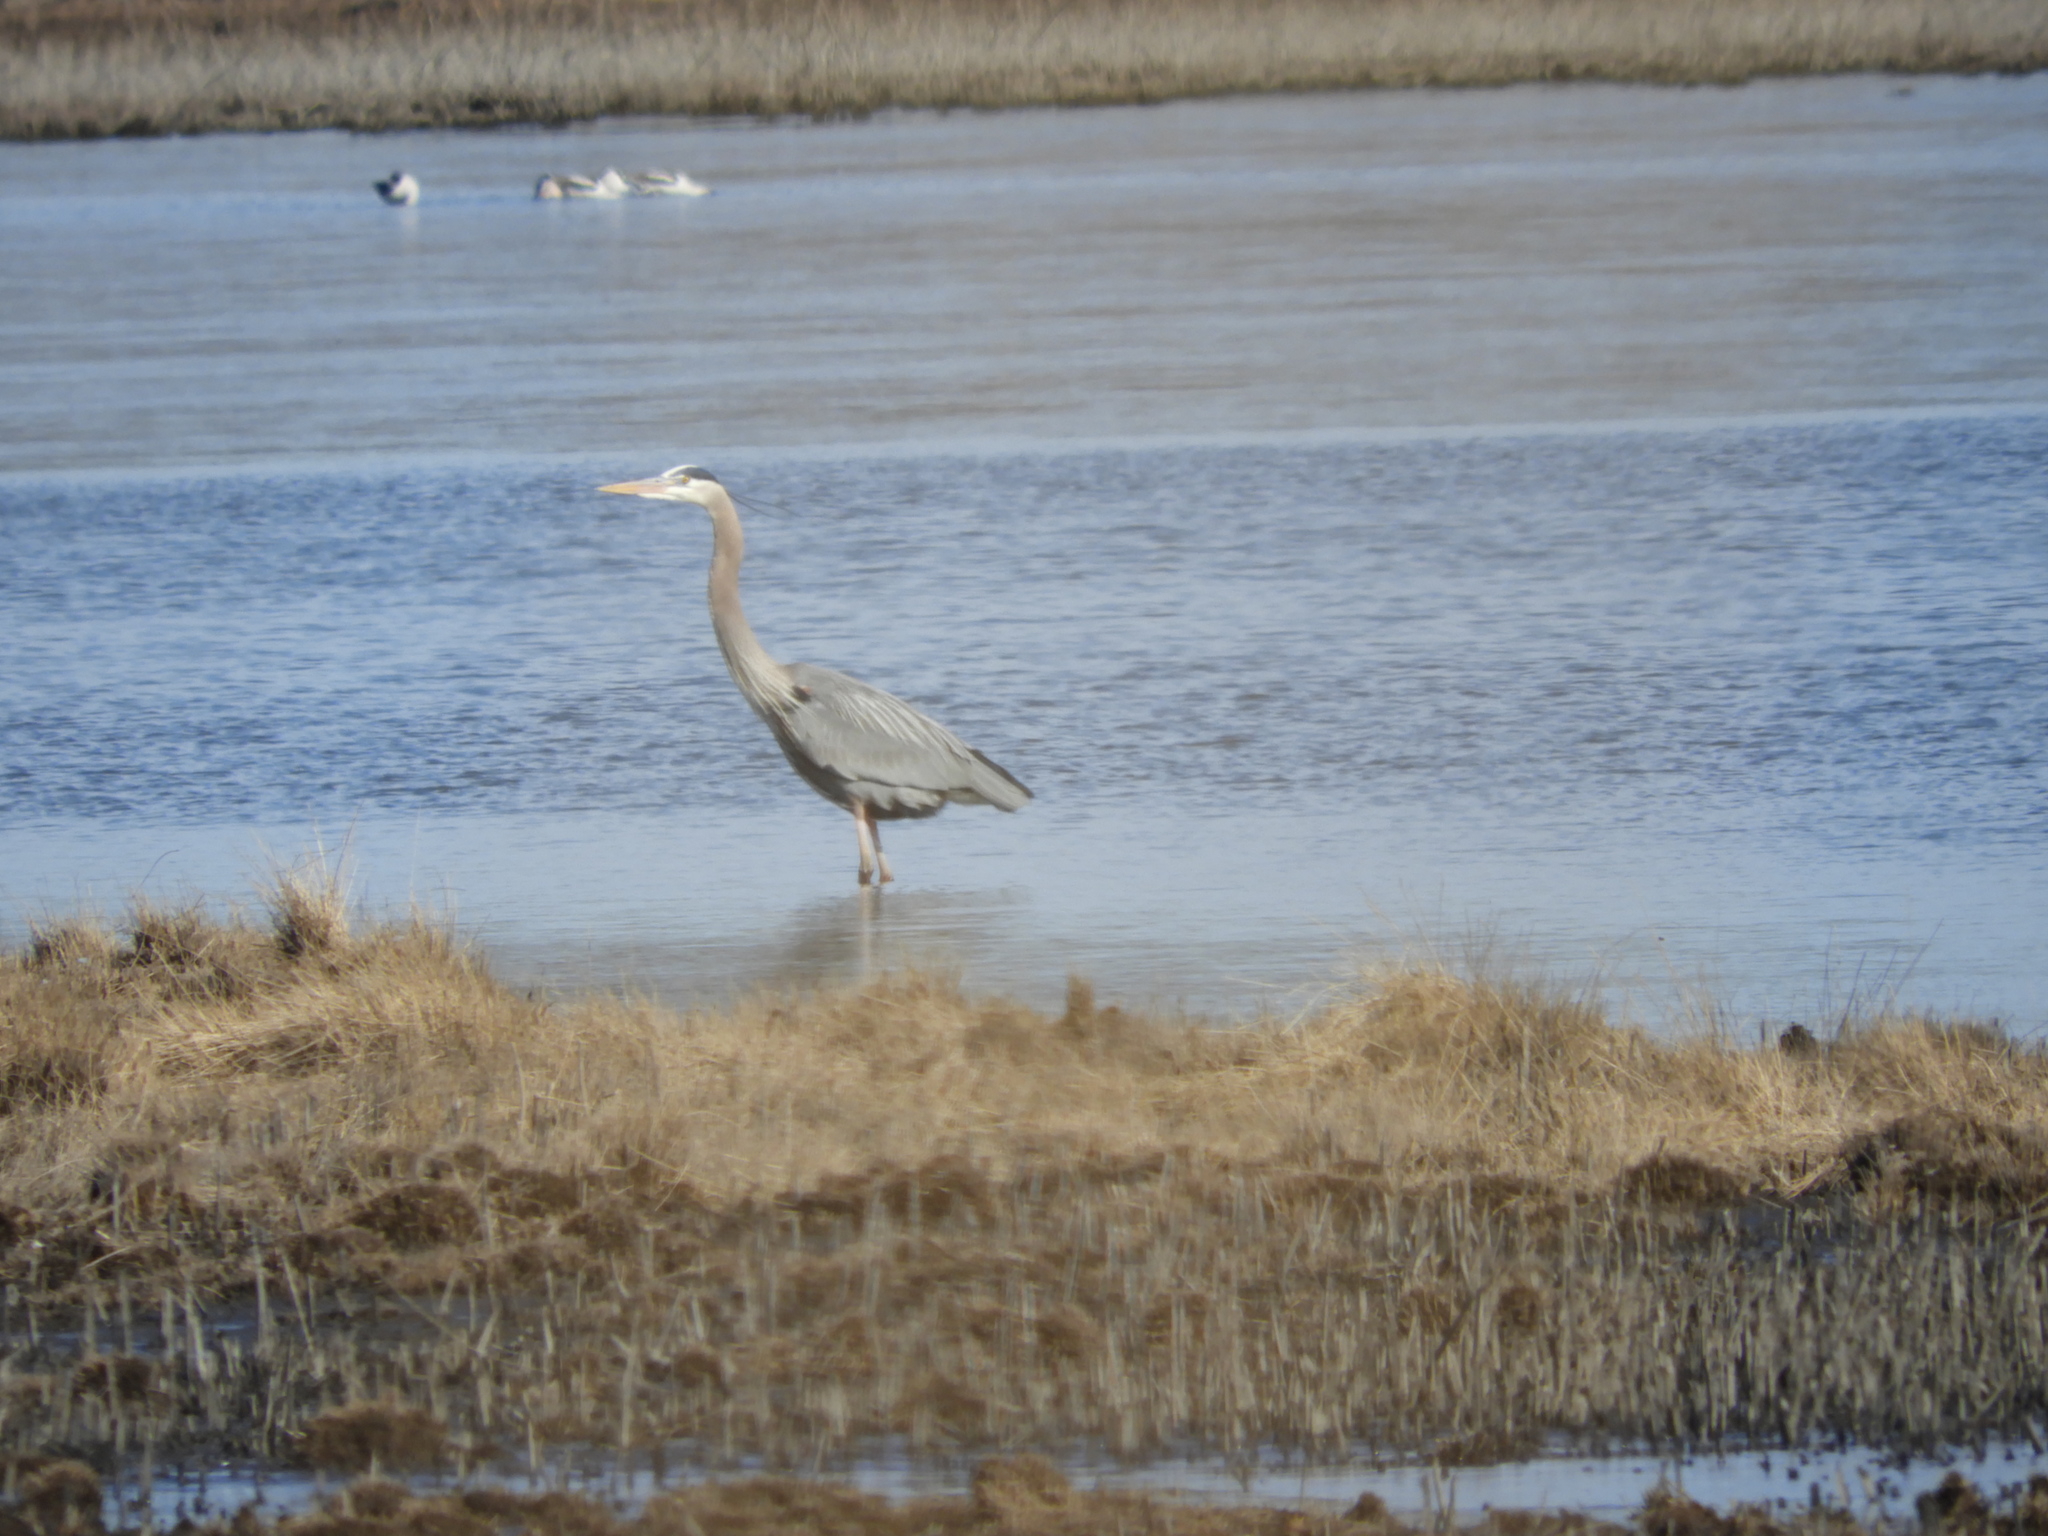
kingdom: Animalia
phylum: Chordata
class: Aves
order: Pelecaniformes
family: Ardeidae
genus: Ardea
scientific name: Ardea herodias
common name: Great blue heron
